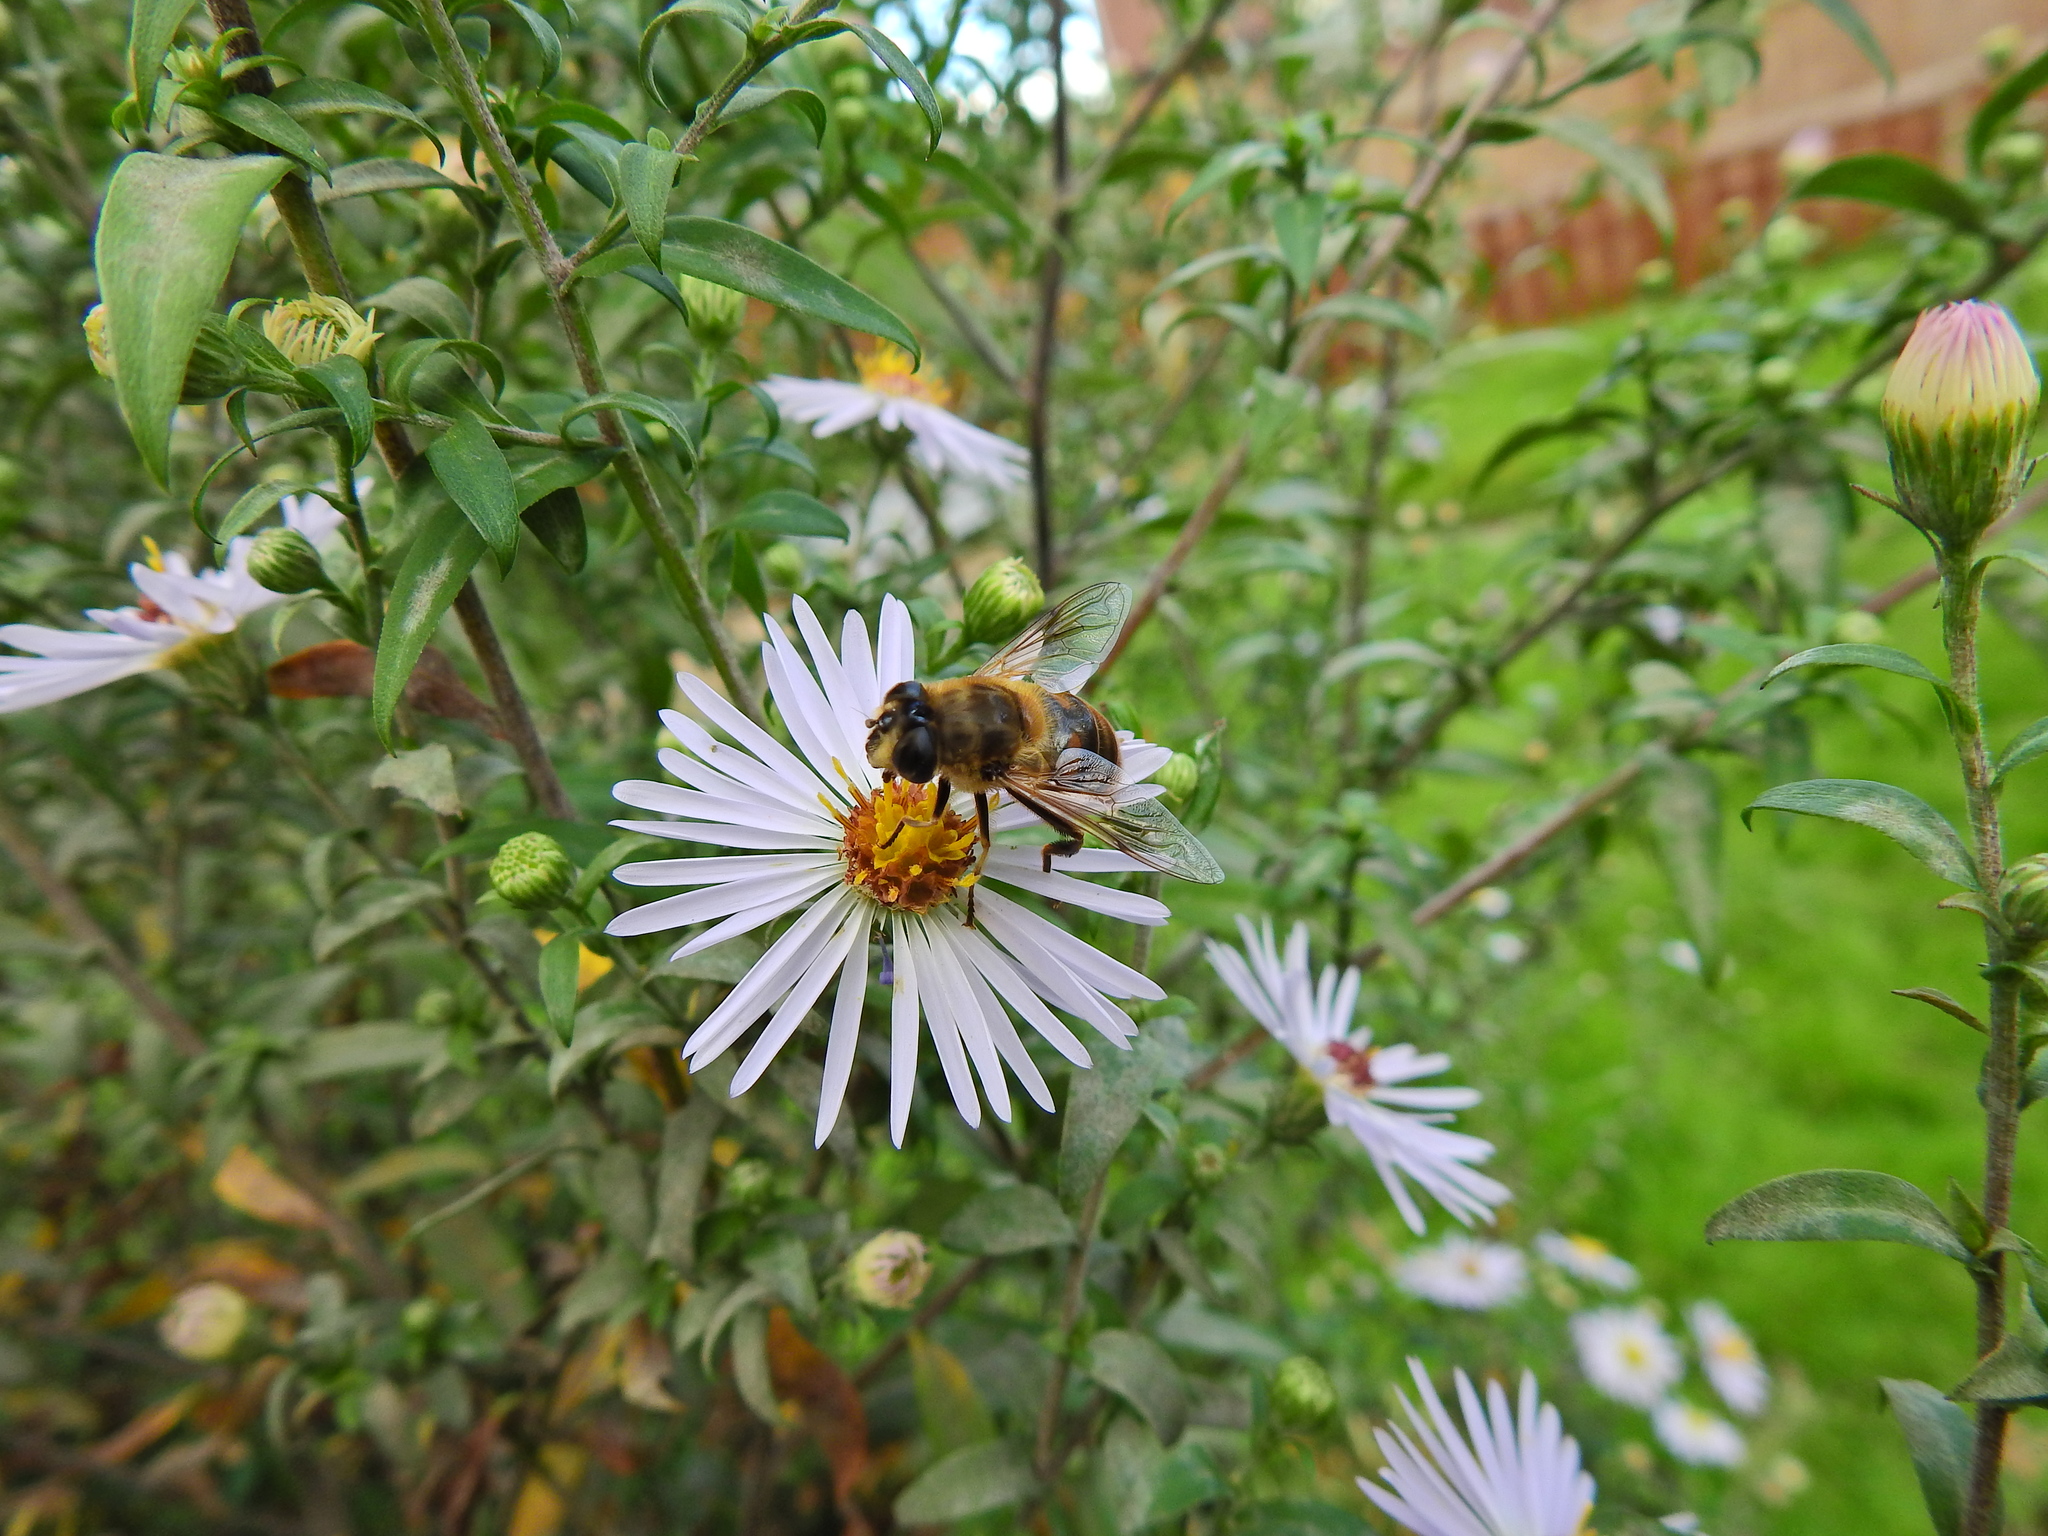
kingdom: Animalia
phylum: Arthropoda
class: Insecta
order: Diptera
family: Syrphidae
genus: Eristalis
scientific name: Eristalis tenax
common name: Drone fly
